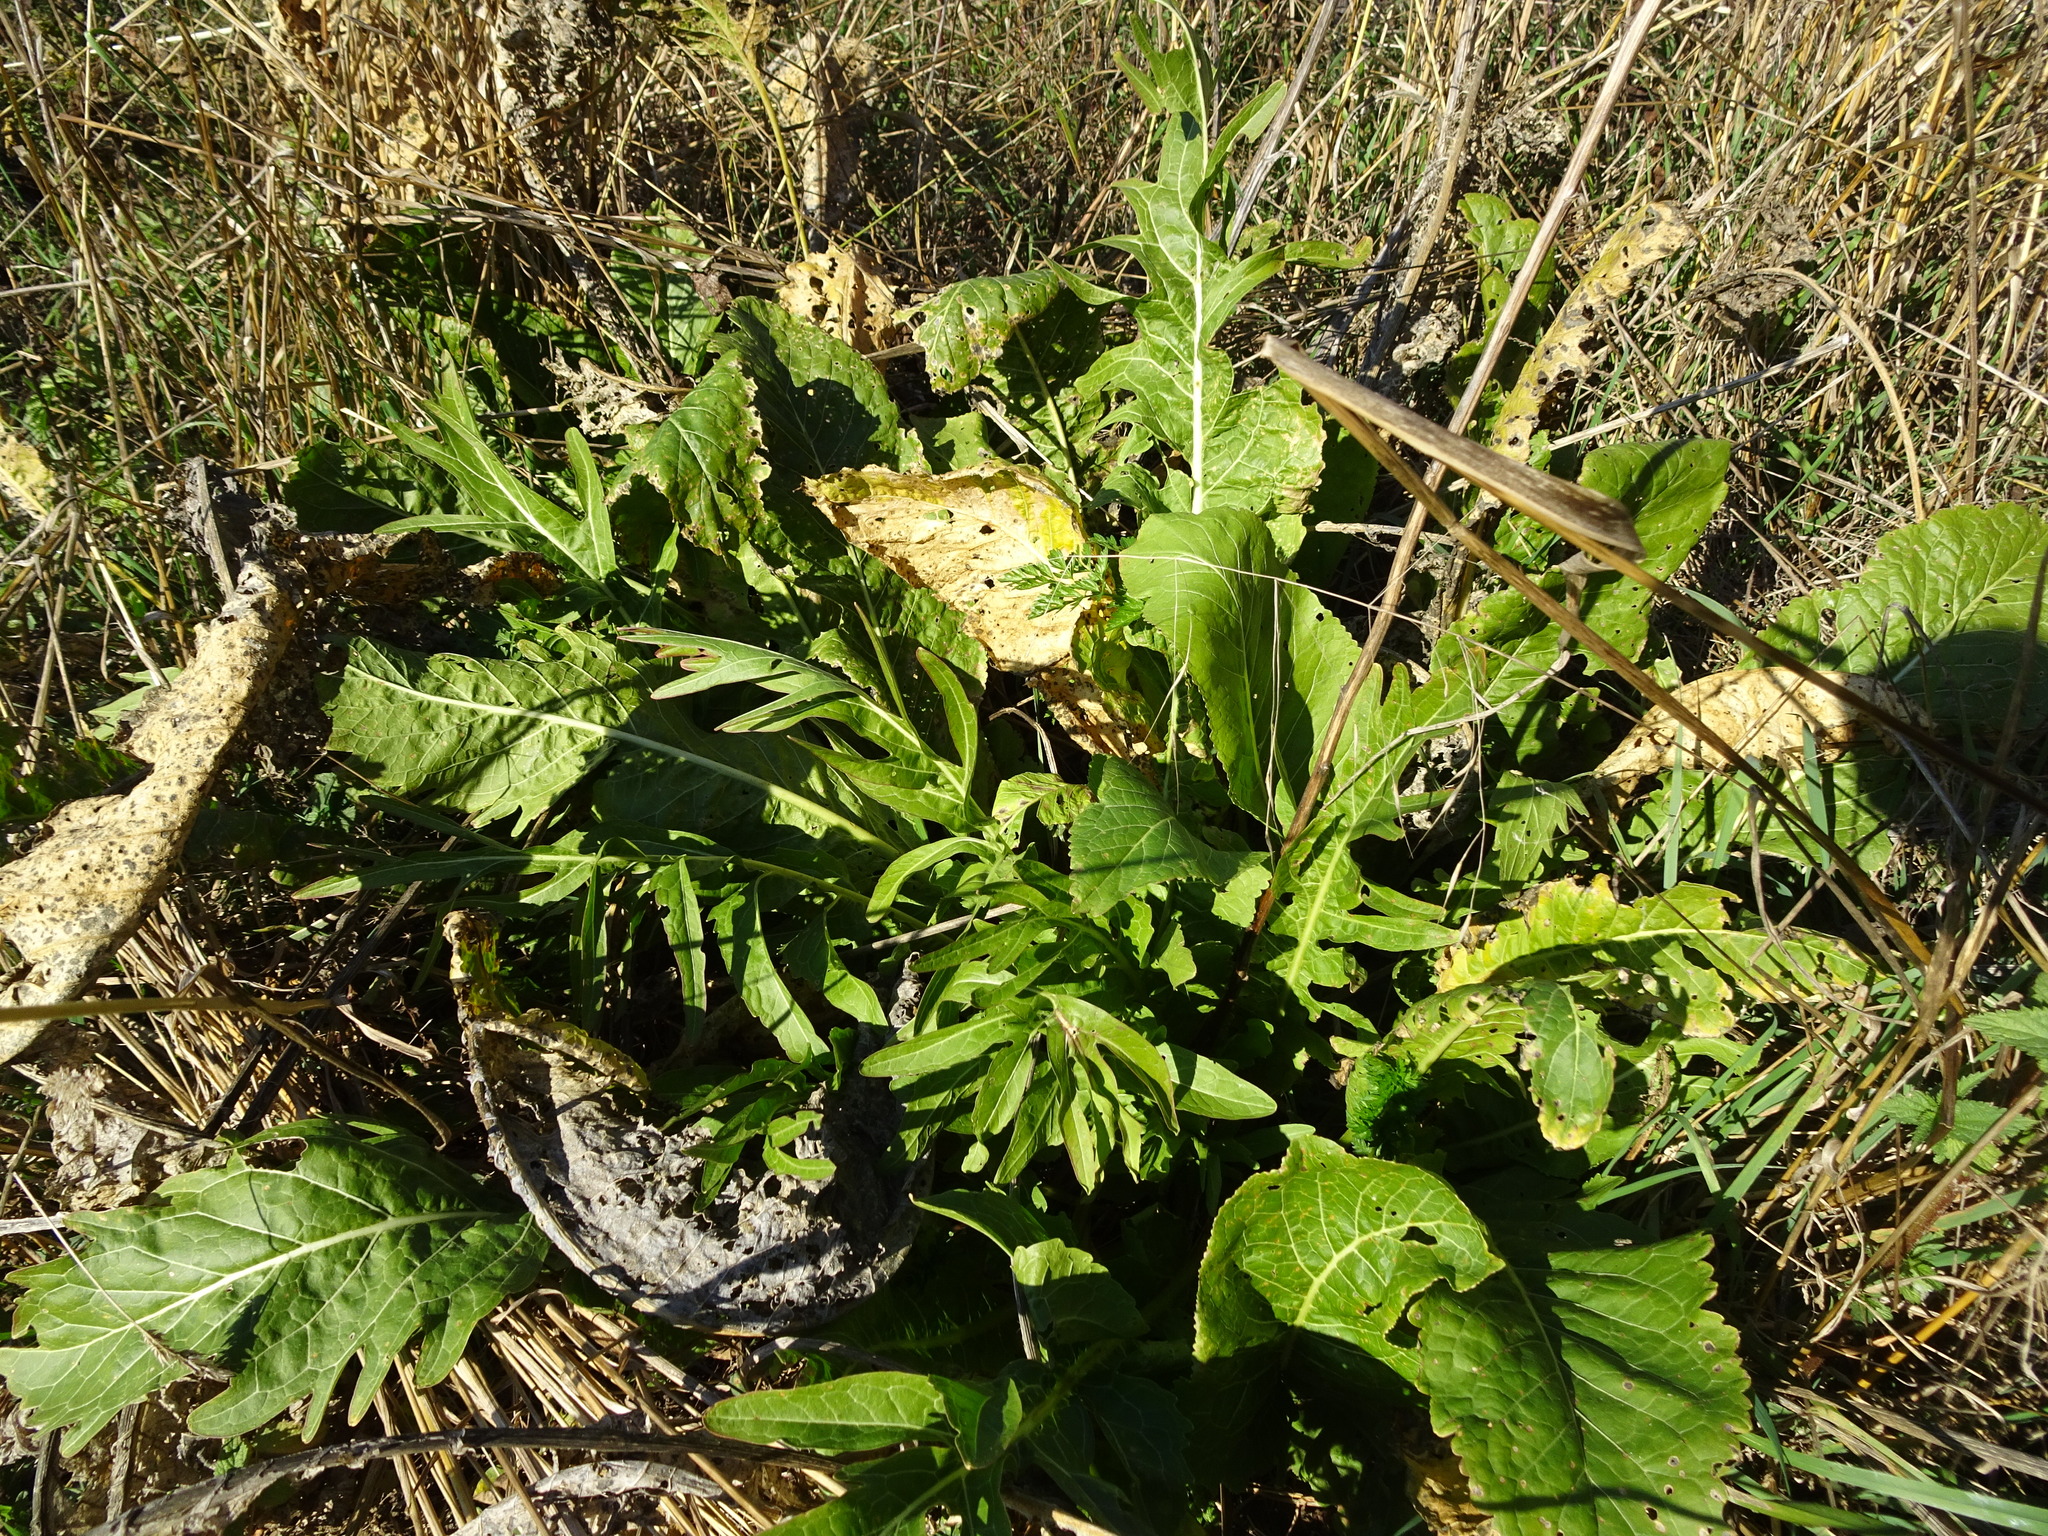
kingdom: Plantae
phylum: Tracheophyta
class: Magnoliopsida
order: Brassicales
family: Brassicaceae
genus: Armoracia
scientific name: Armoracia rusticana
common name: Horseradish
